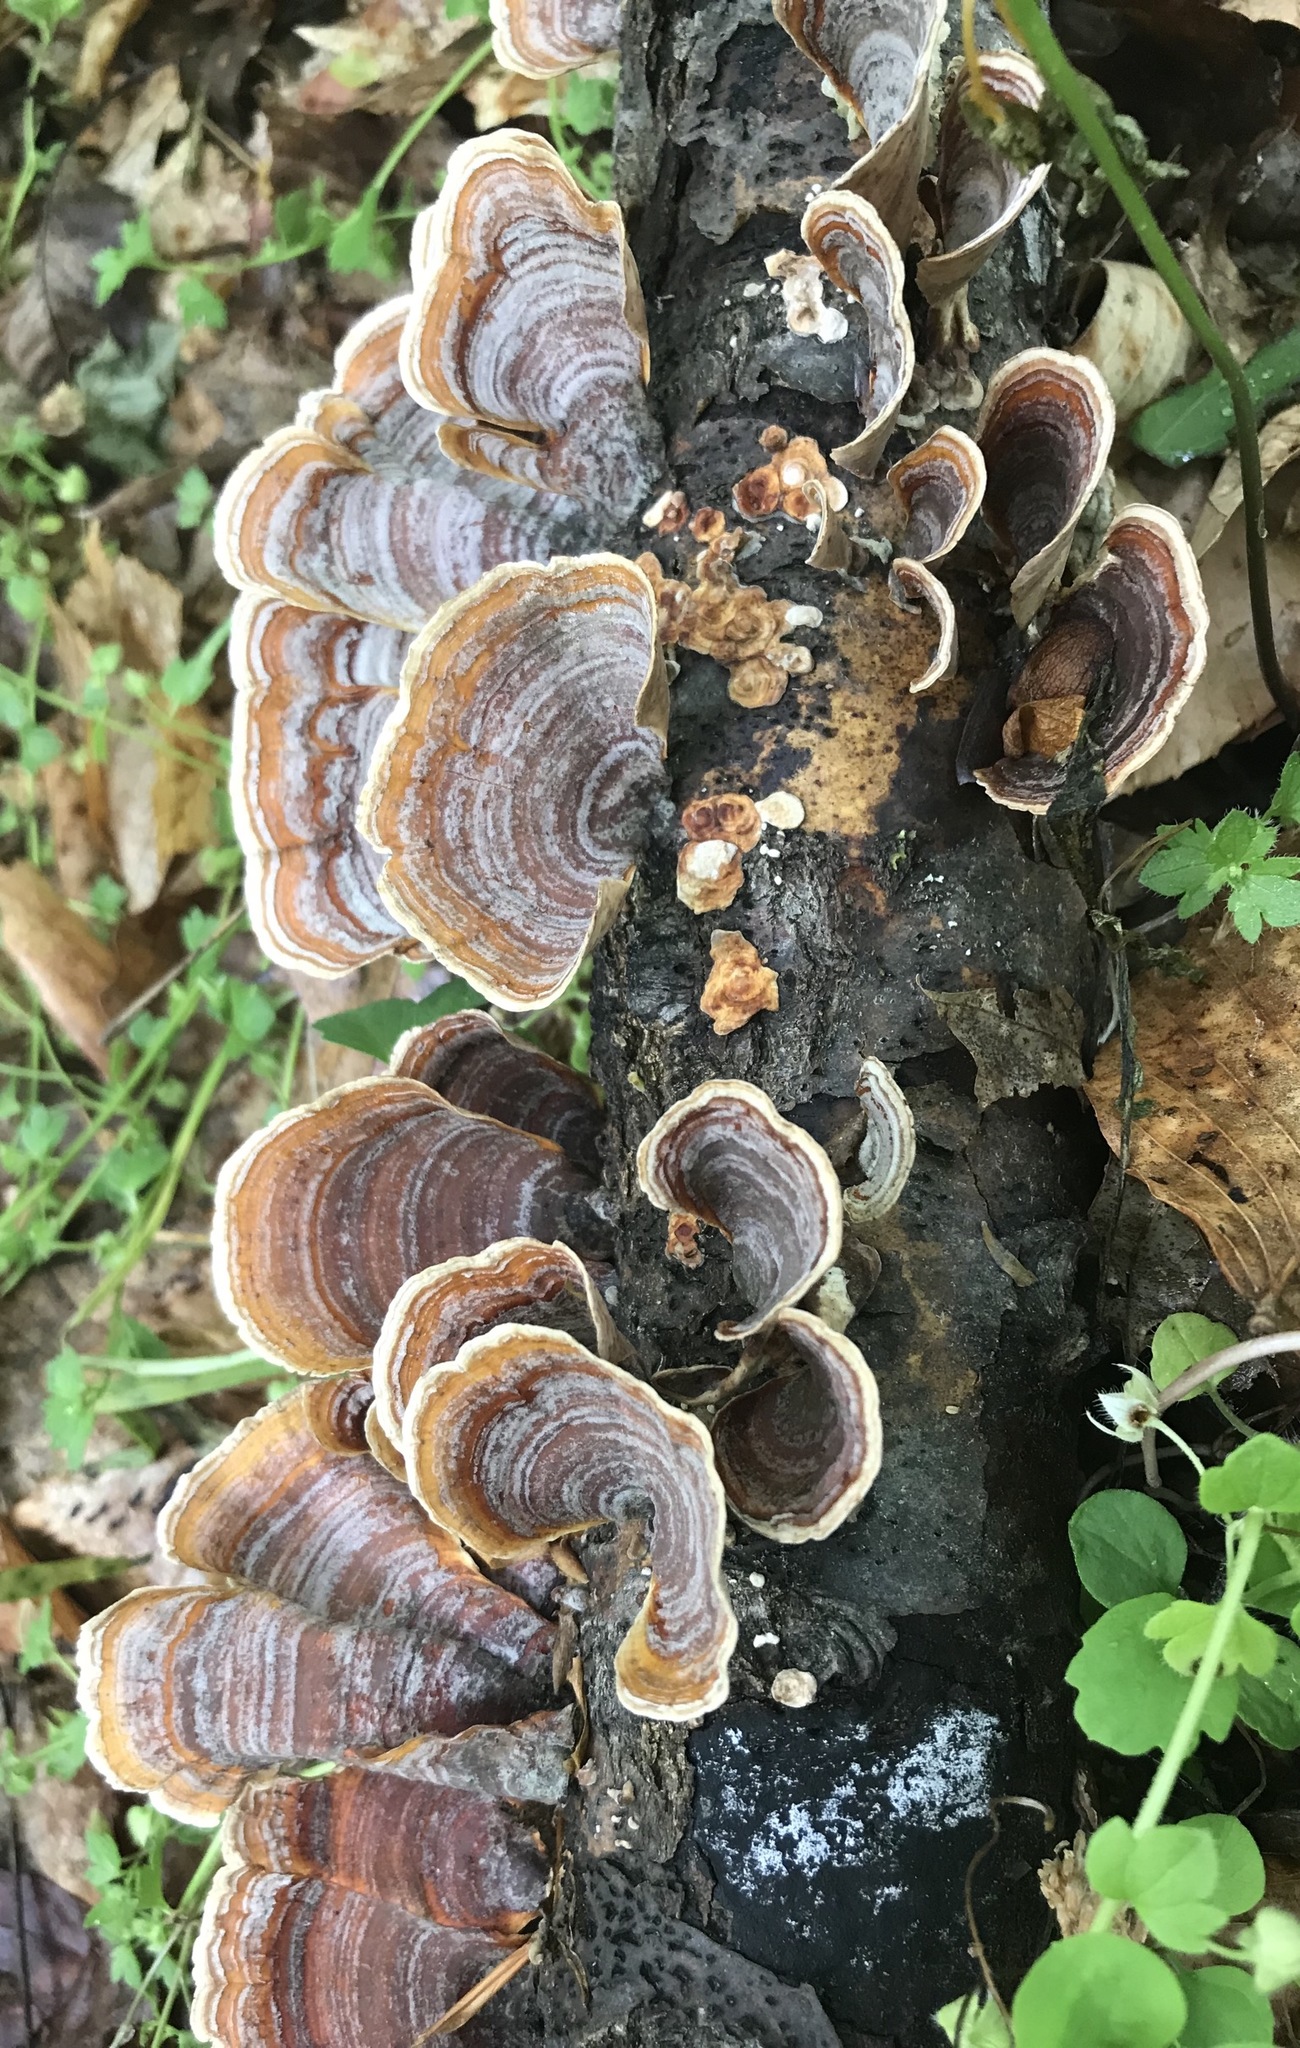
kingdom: Fungi
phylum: Basidiomycota
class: Agaricomycetes
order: Russulales
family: Stereaceae
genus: Stereum
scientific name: Stereum ostrea
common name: False turkeytail
